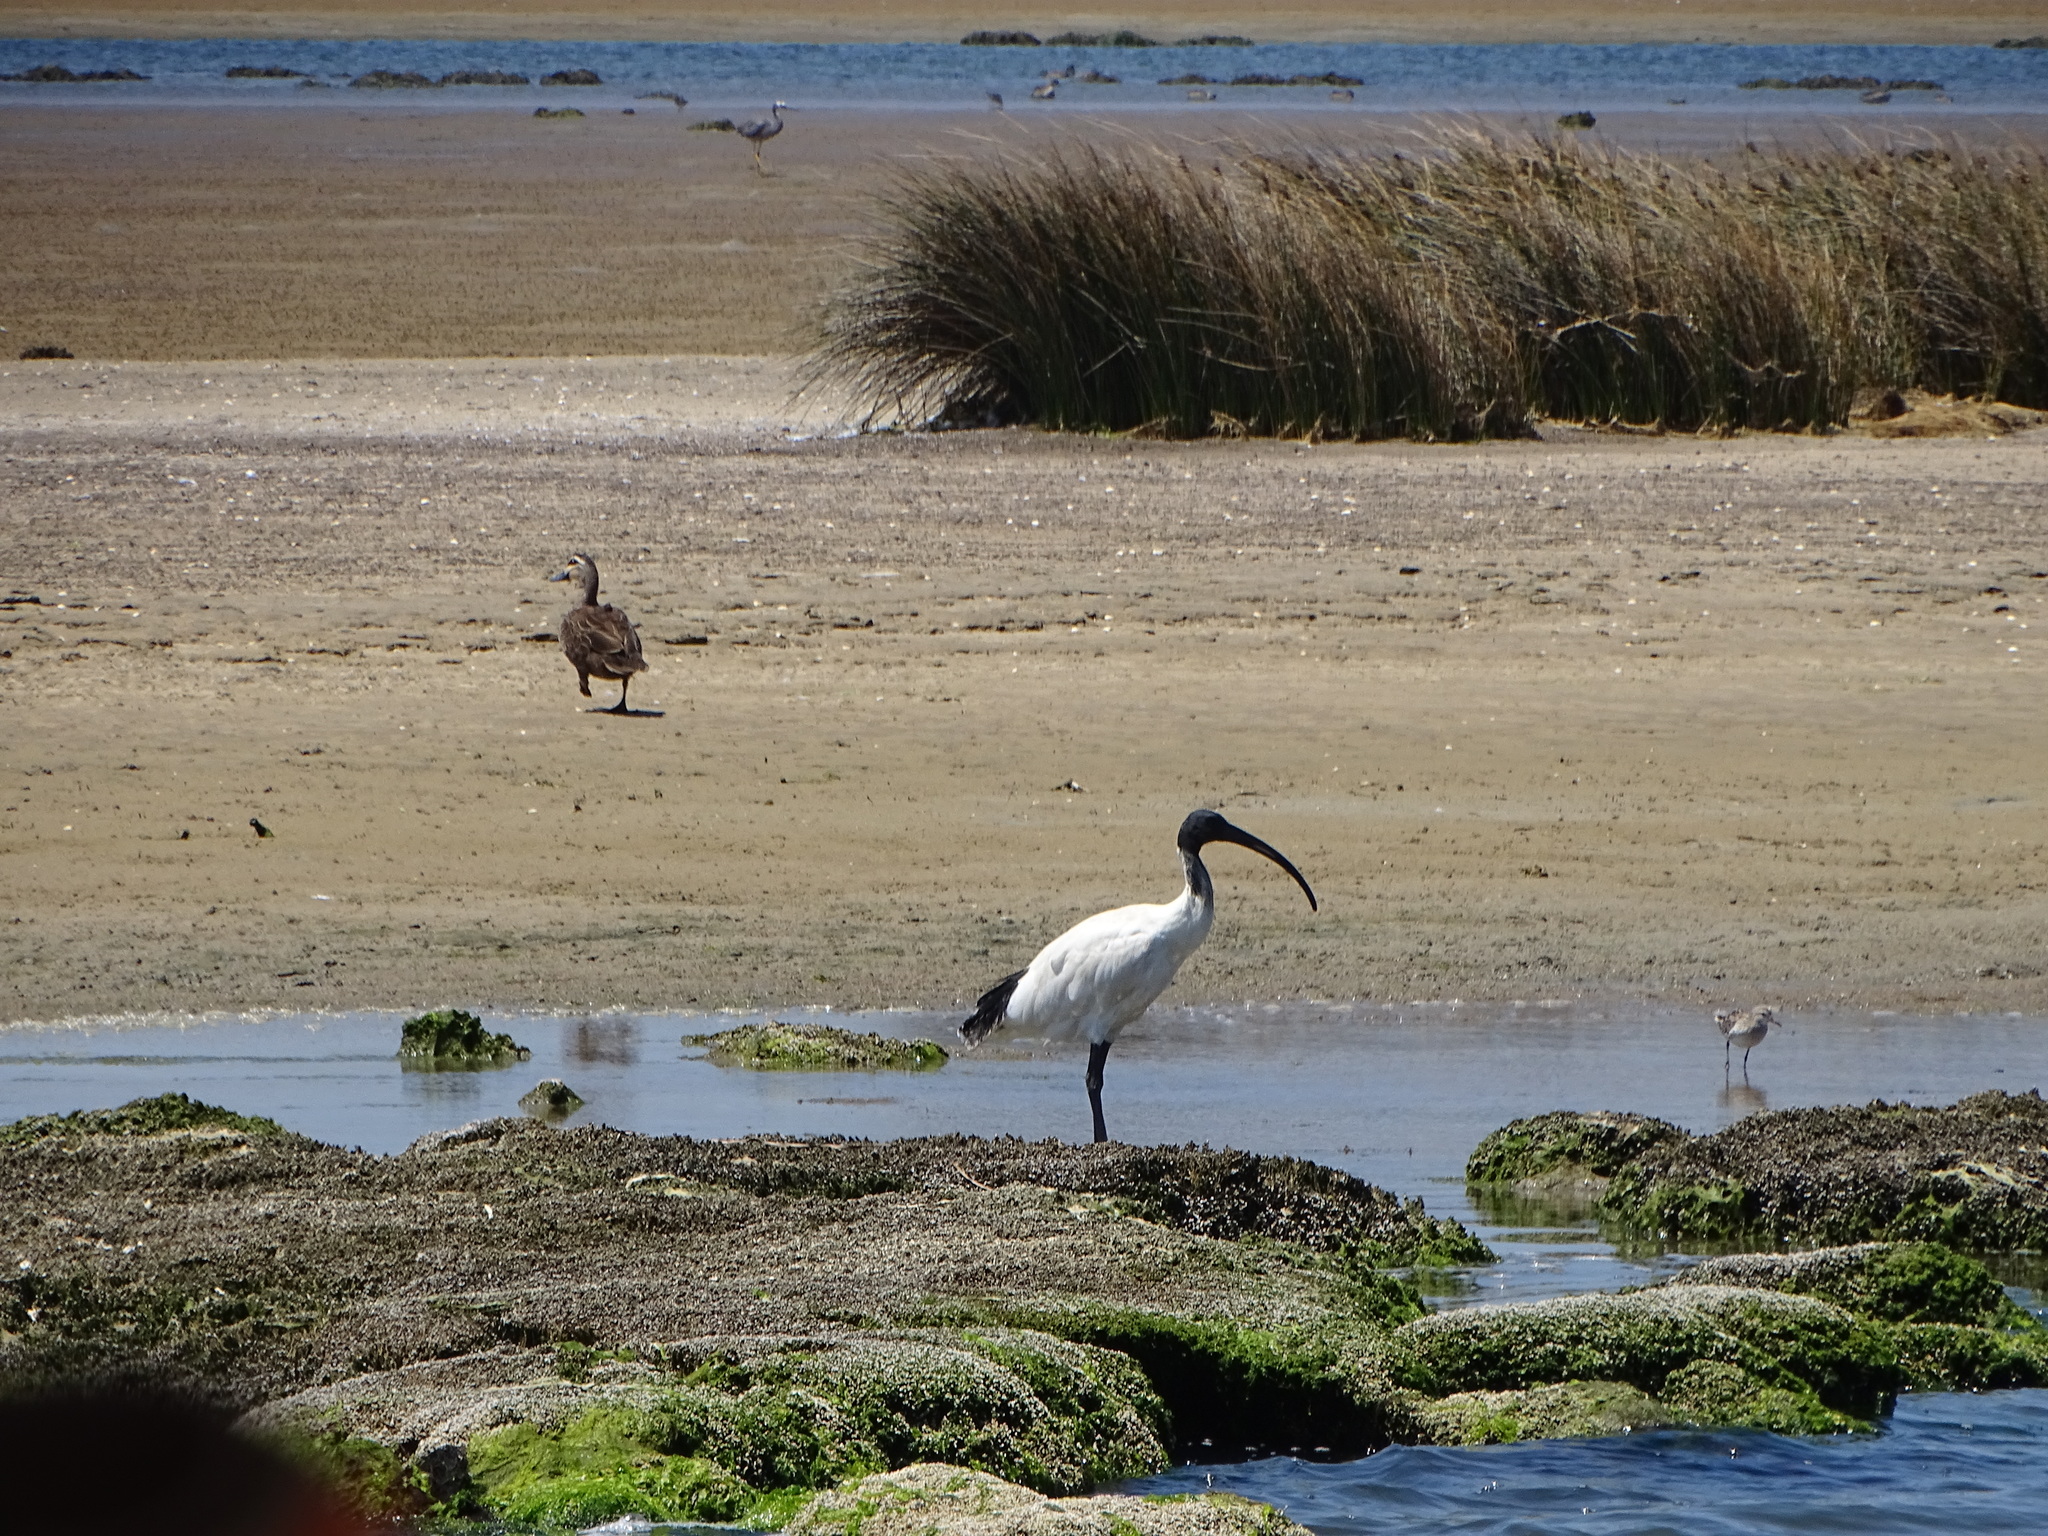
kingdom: Animalia
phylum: Chordata
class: Aves
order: Pelecaniformes
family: Threskiornithidae
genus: Threskiornis
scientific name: Threskiornis molucca
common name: Australian white ibis
